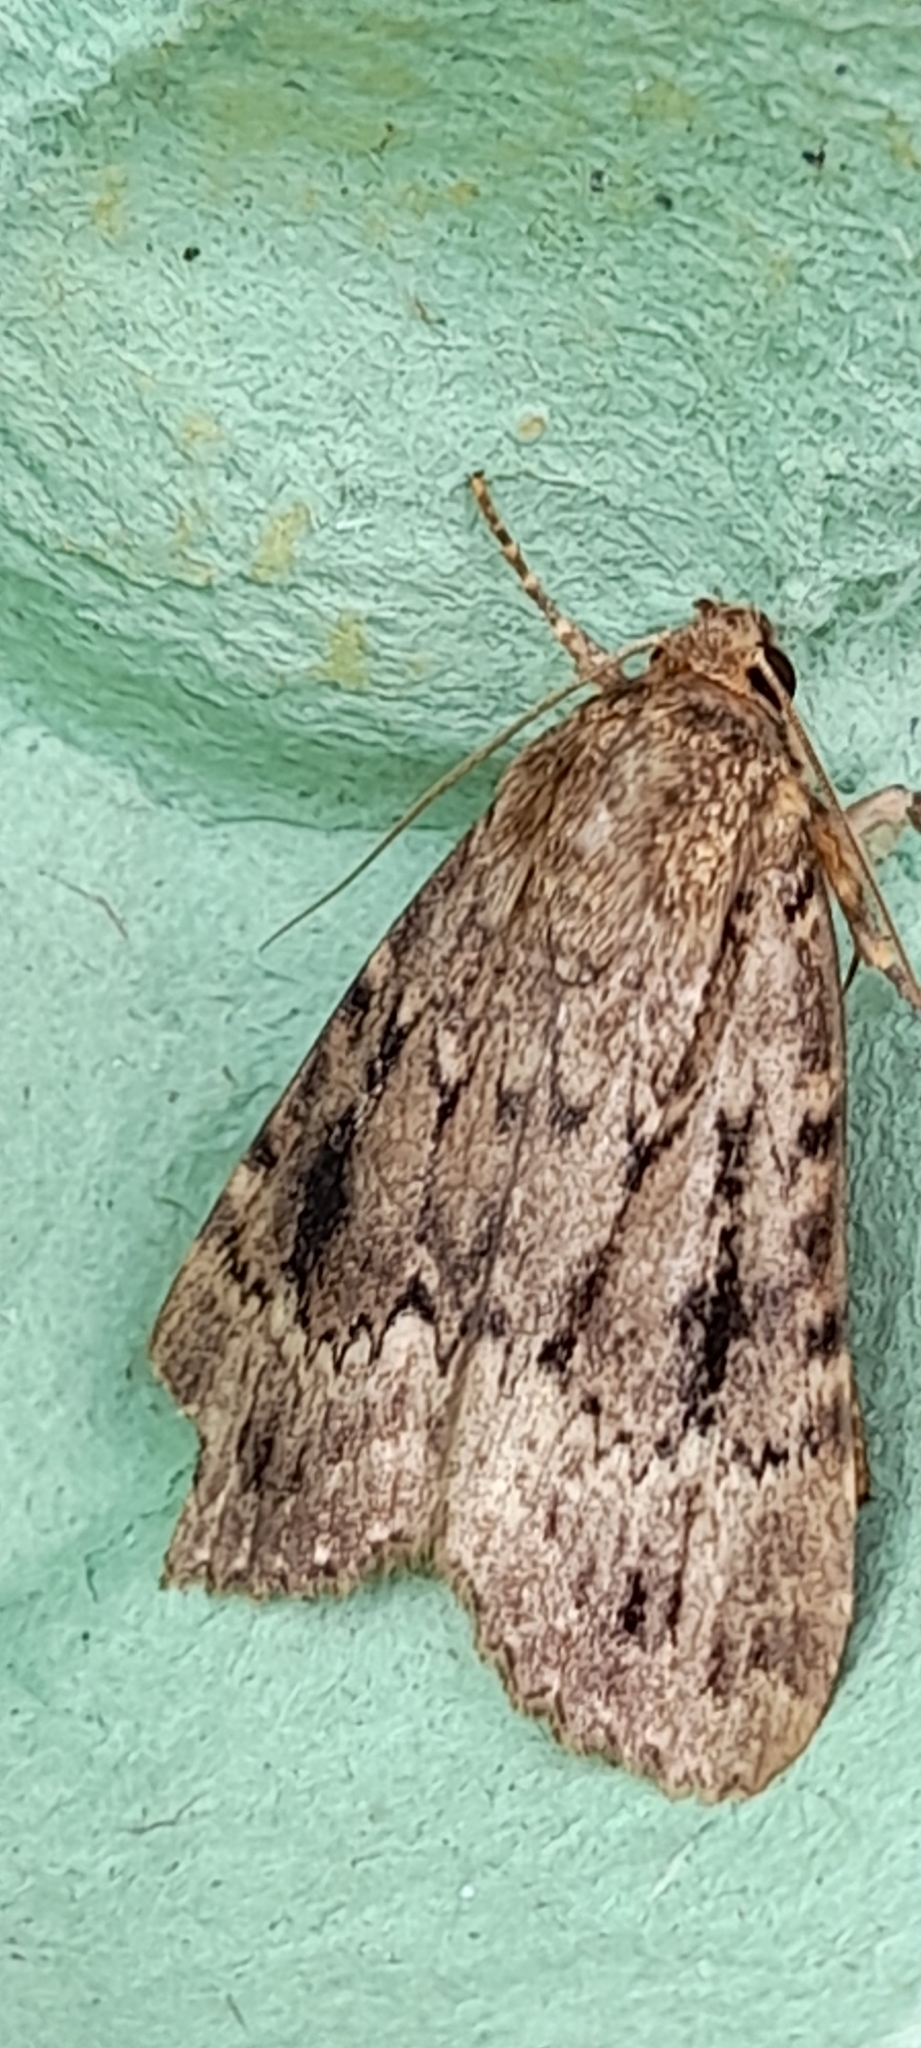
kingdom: Animalia
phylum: Arthropoda
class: Insecta
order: Lepidoptera
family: Noctuidae
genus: Amphipyra
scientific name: Amphipyra pyramidea
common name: Copper underwing
